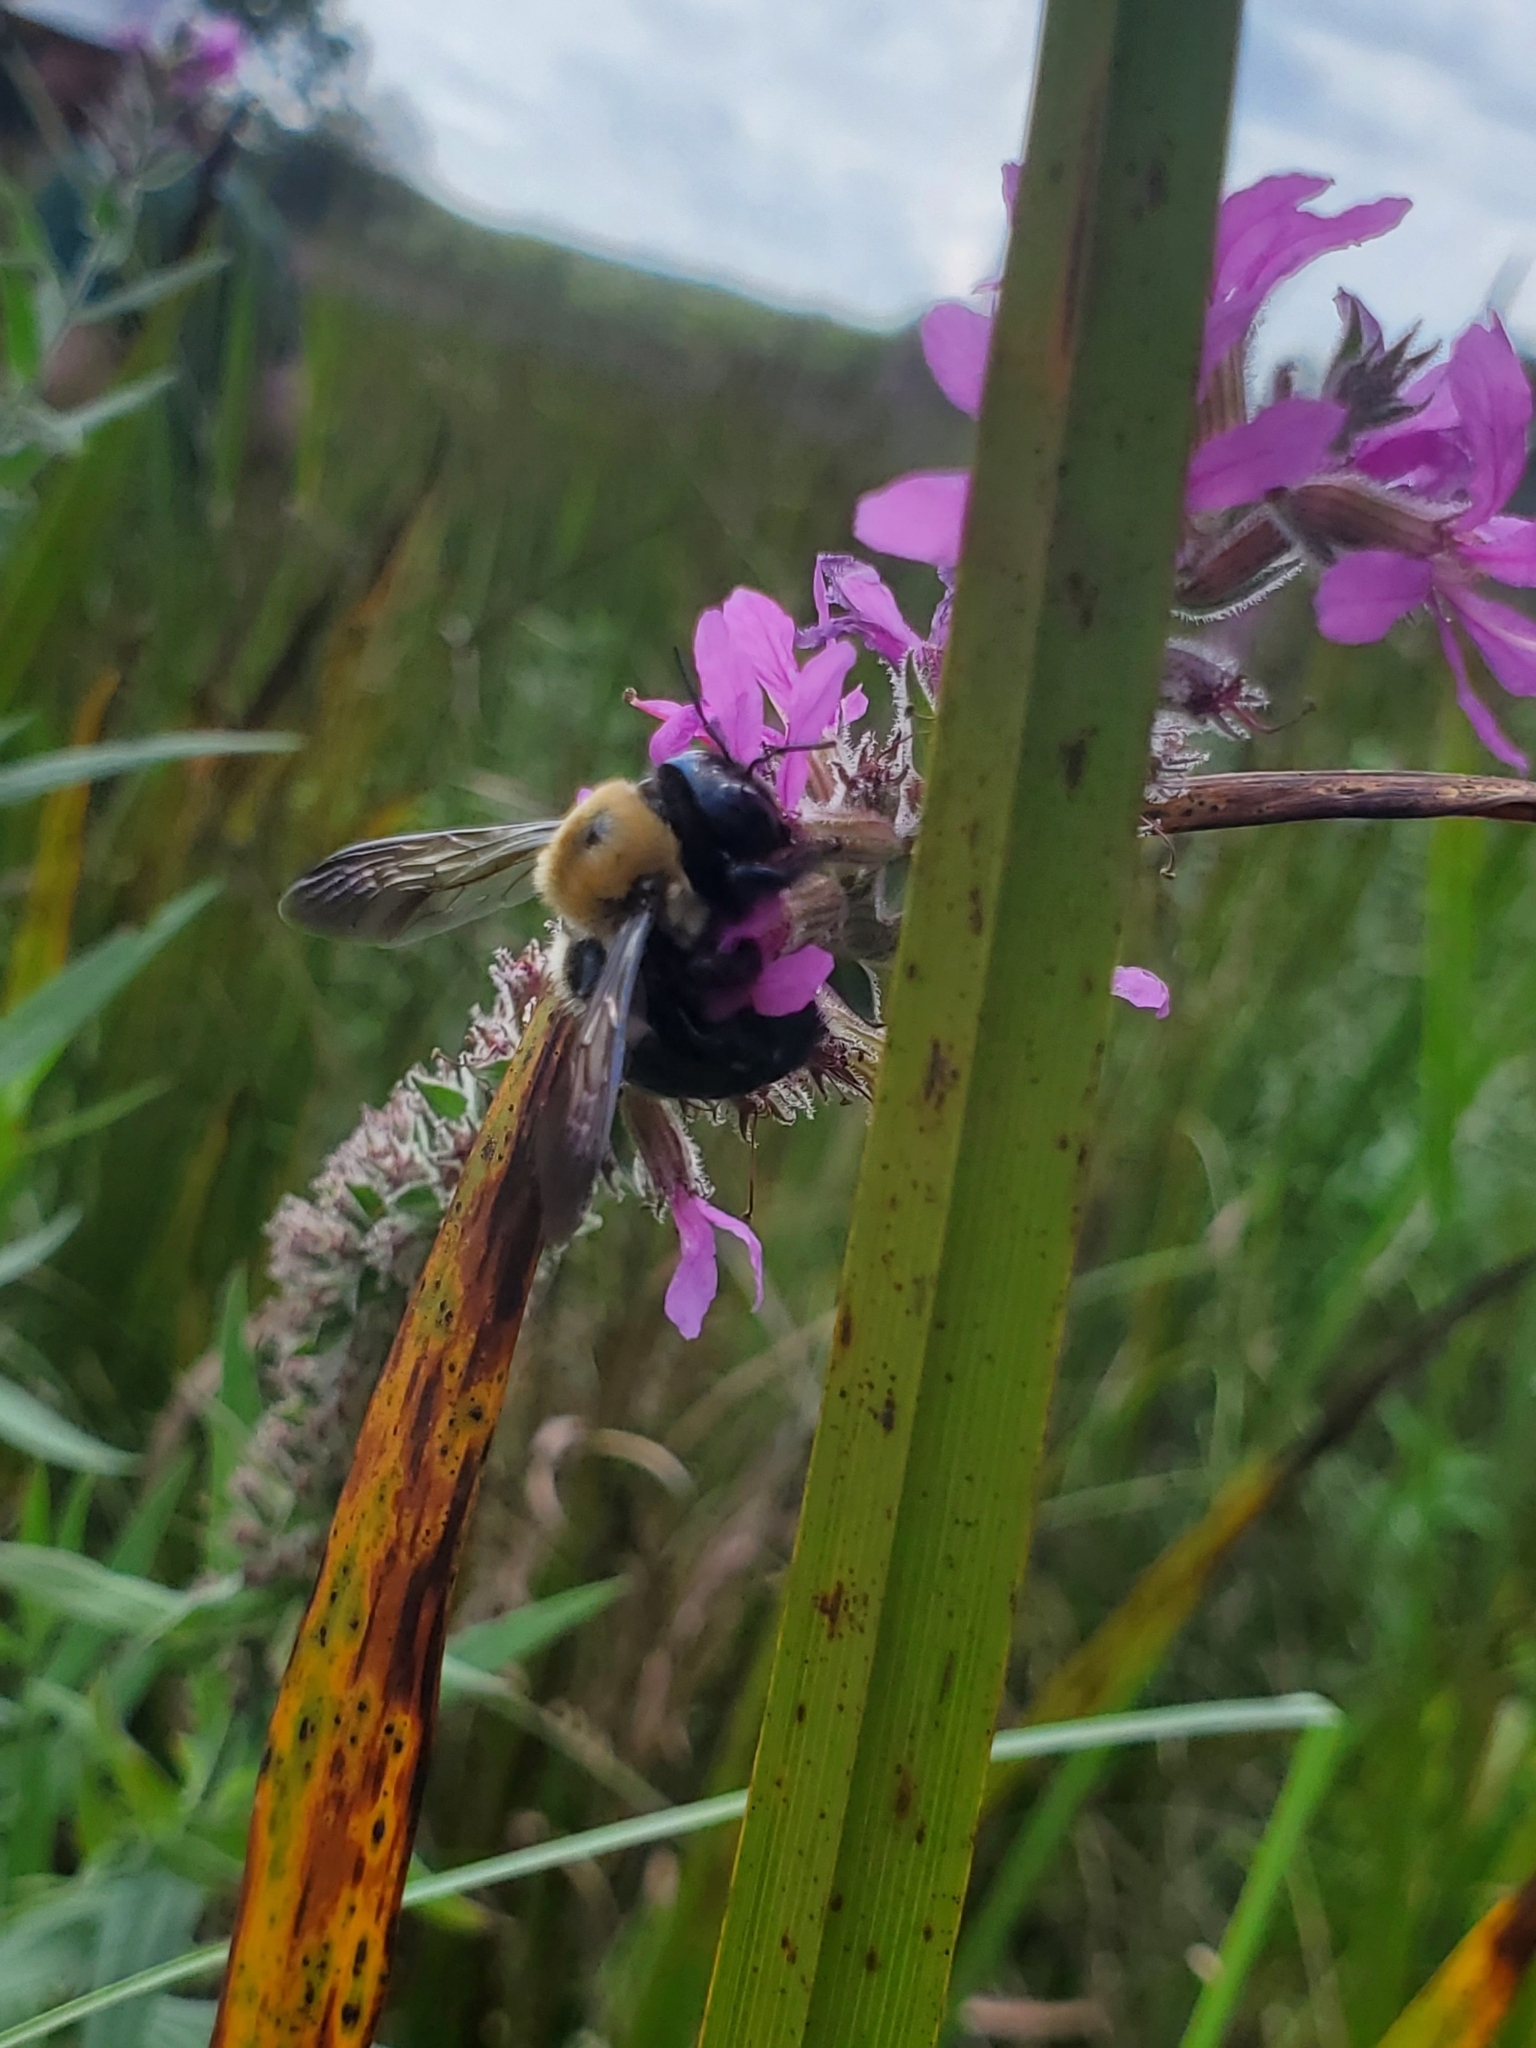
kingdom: Animalia
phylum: Arthropoda
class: Insecta
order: Hymenoptera
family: Apidae
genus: Xylocopa
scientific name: Xylocopa virginica
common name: Carpenter bee
